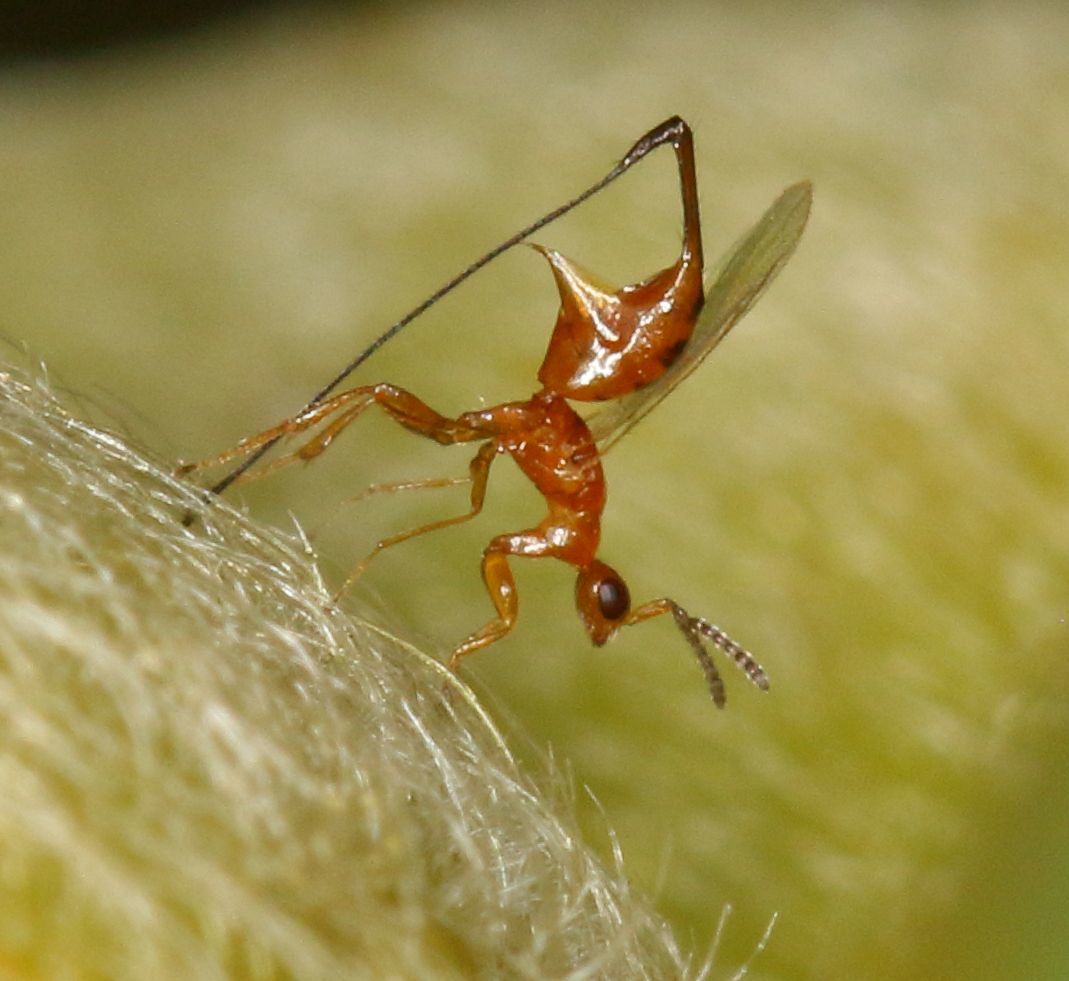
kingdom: Animalia
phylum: Arthropoda
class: Insecta
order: Hymenoptera
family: Agaonidae
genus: Philotrypesis
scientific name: Philotrypesis parca
